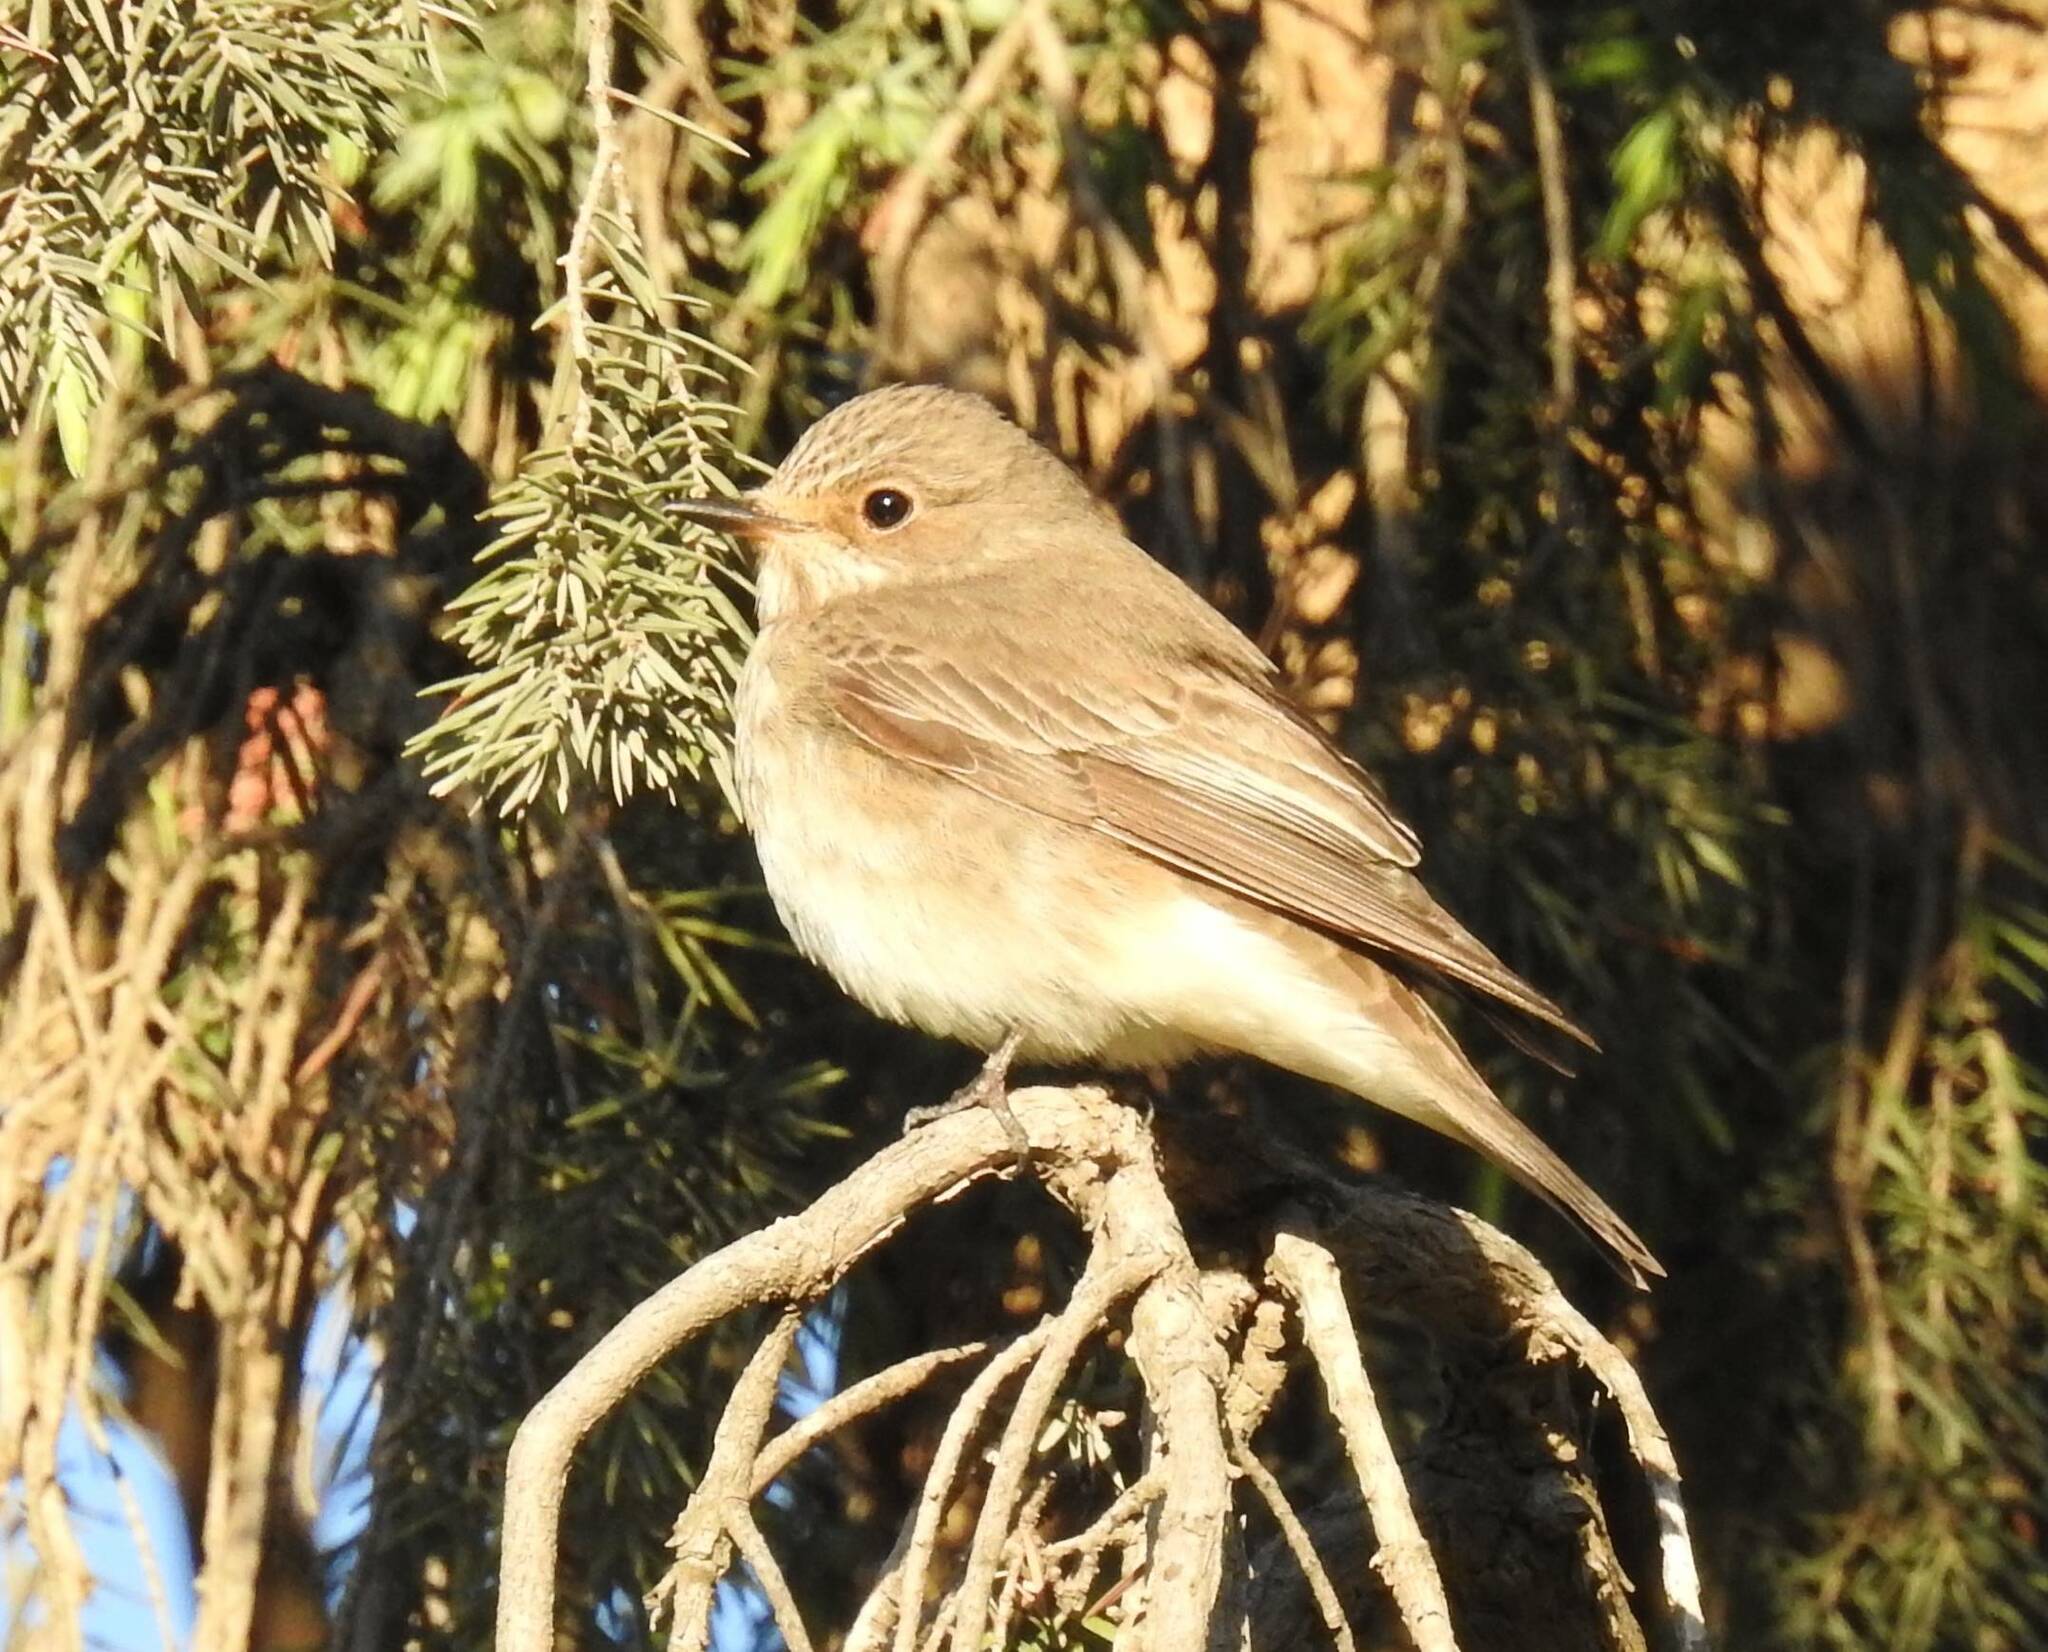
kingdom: Animalia
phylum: Chordata
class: Aves
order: Passeriformes
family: Muscicapidae
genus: Muscicapa
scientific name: Muscicapa striata
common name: Spotted flycatcher
